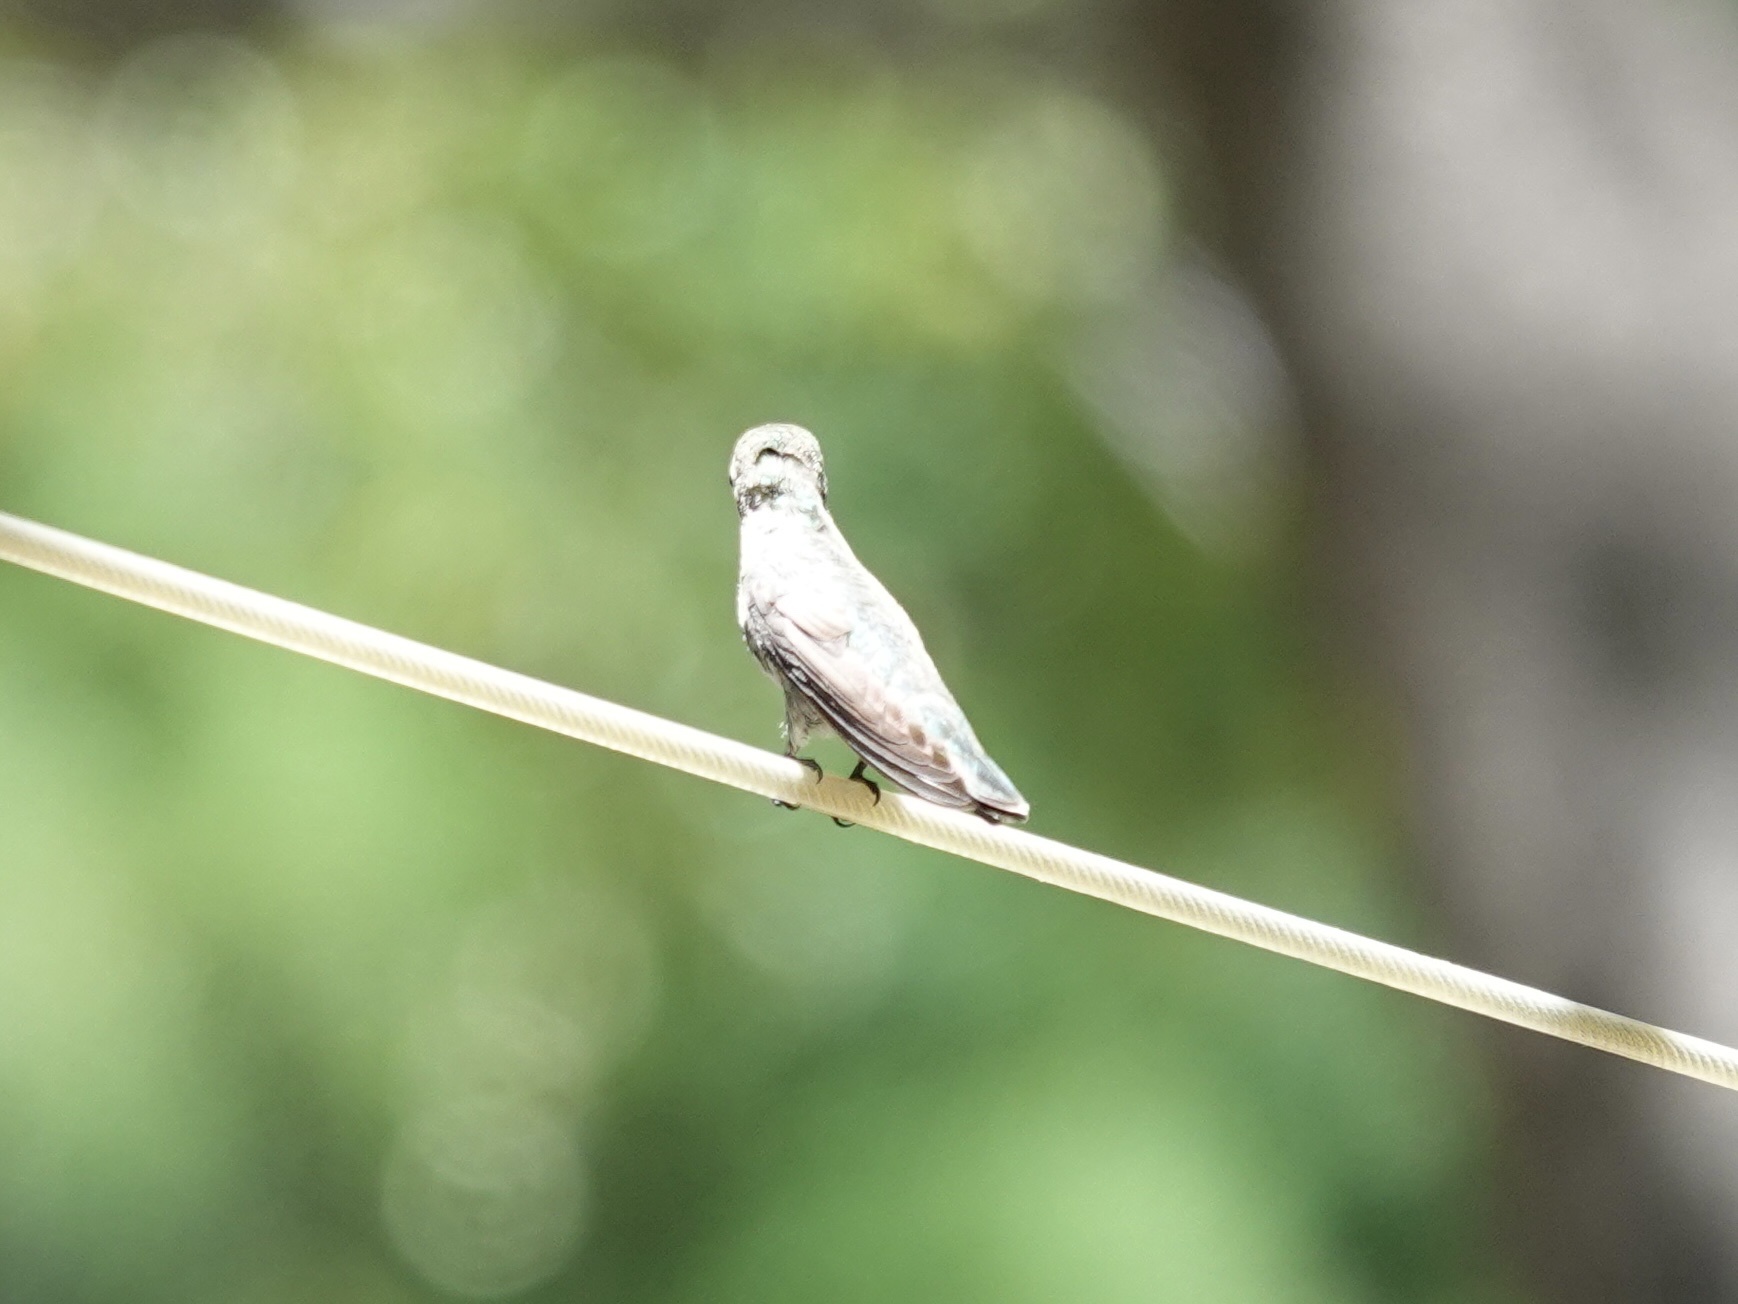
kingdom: Animalia
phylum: Chordata
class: Aves
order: Apodiformes
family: Trochilidae
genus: Calypte
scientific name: Calypte anna
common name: Anna's hummingbird
